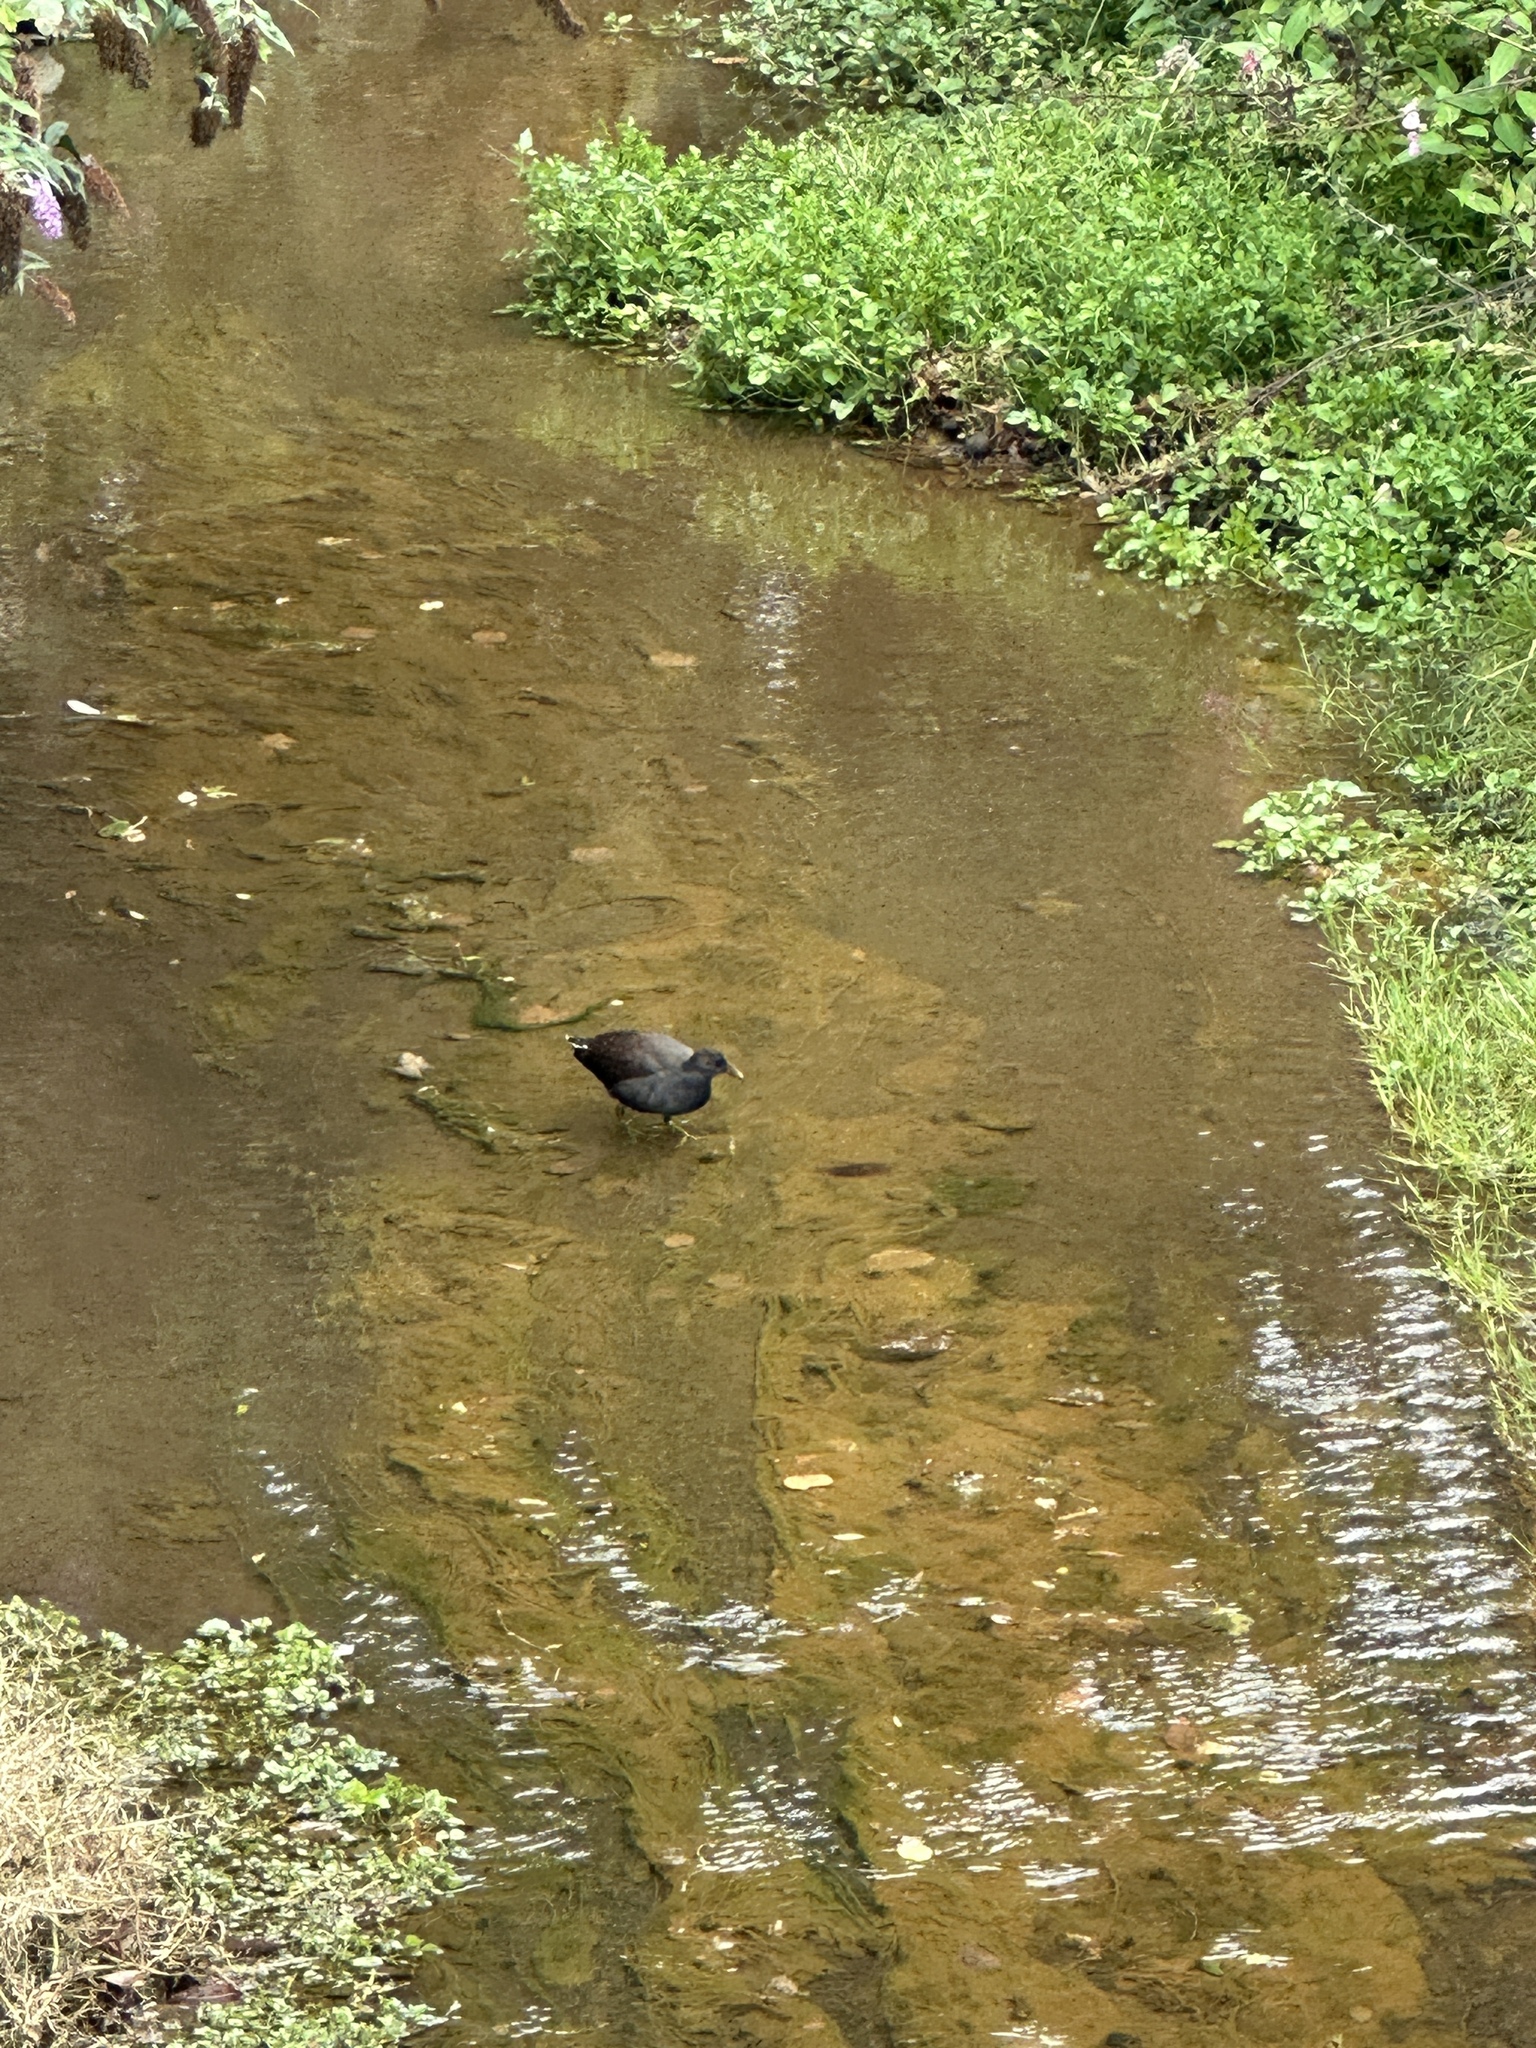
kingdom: Animalia
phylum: Chordata
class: Aves
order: Gruiformes
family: Rallidae
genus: Gallinula
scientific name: Gallinula chloropus
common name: Common moorhen
